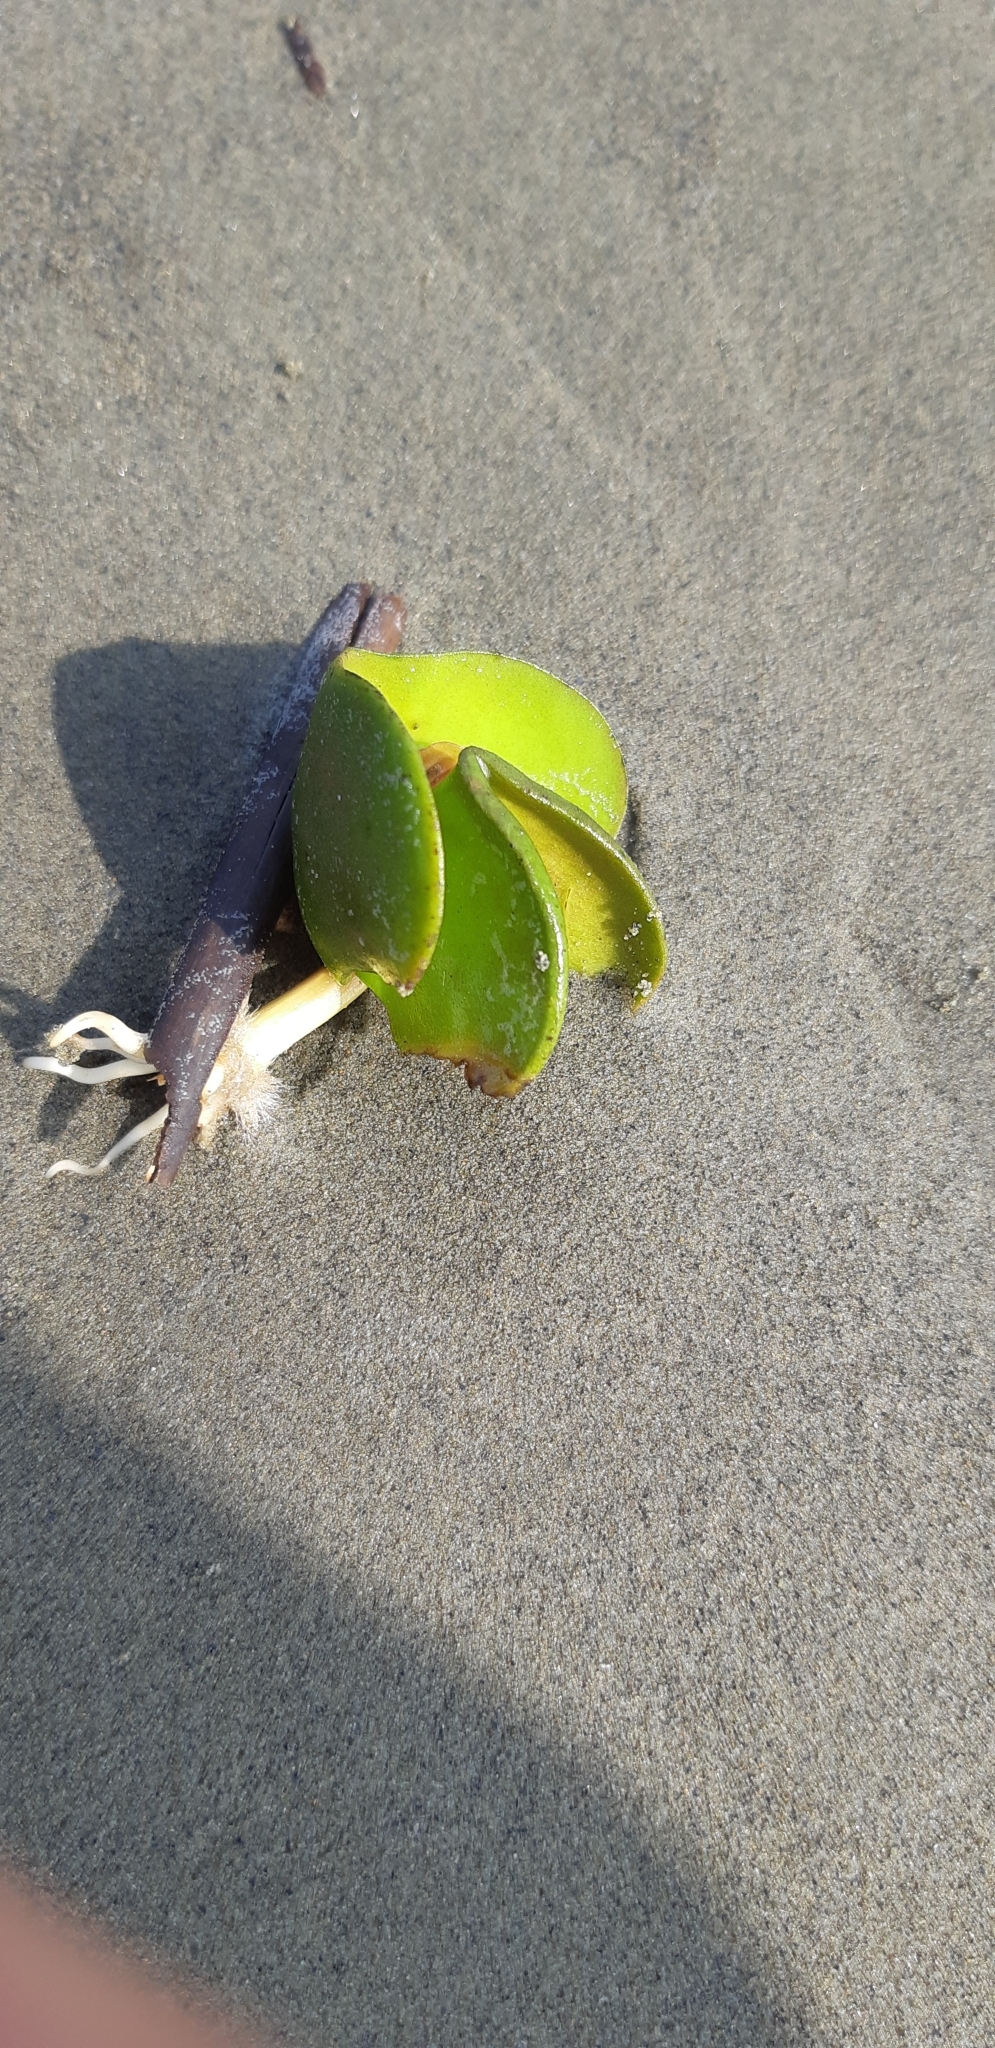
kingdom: Plantae
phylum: Tracheophyta
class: Magnoliopsida
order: Lamiales
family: Acanthaceae
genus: Avicennia
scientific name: Avicennia marina
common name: Gray mangrove
